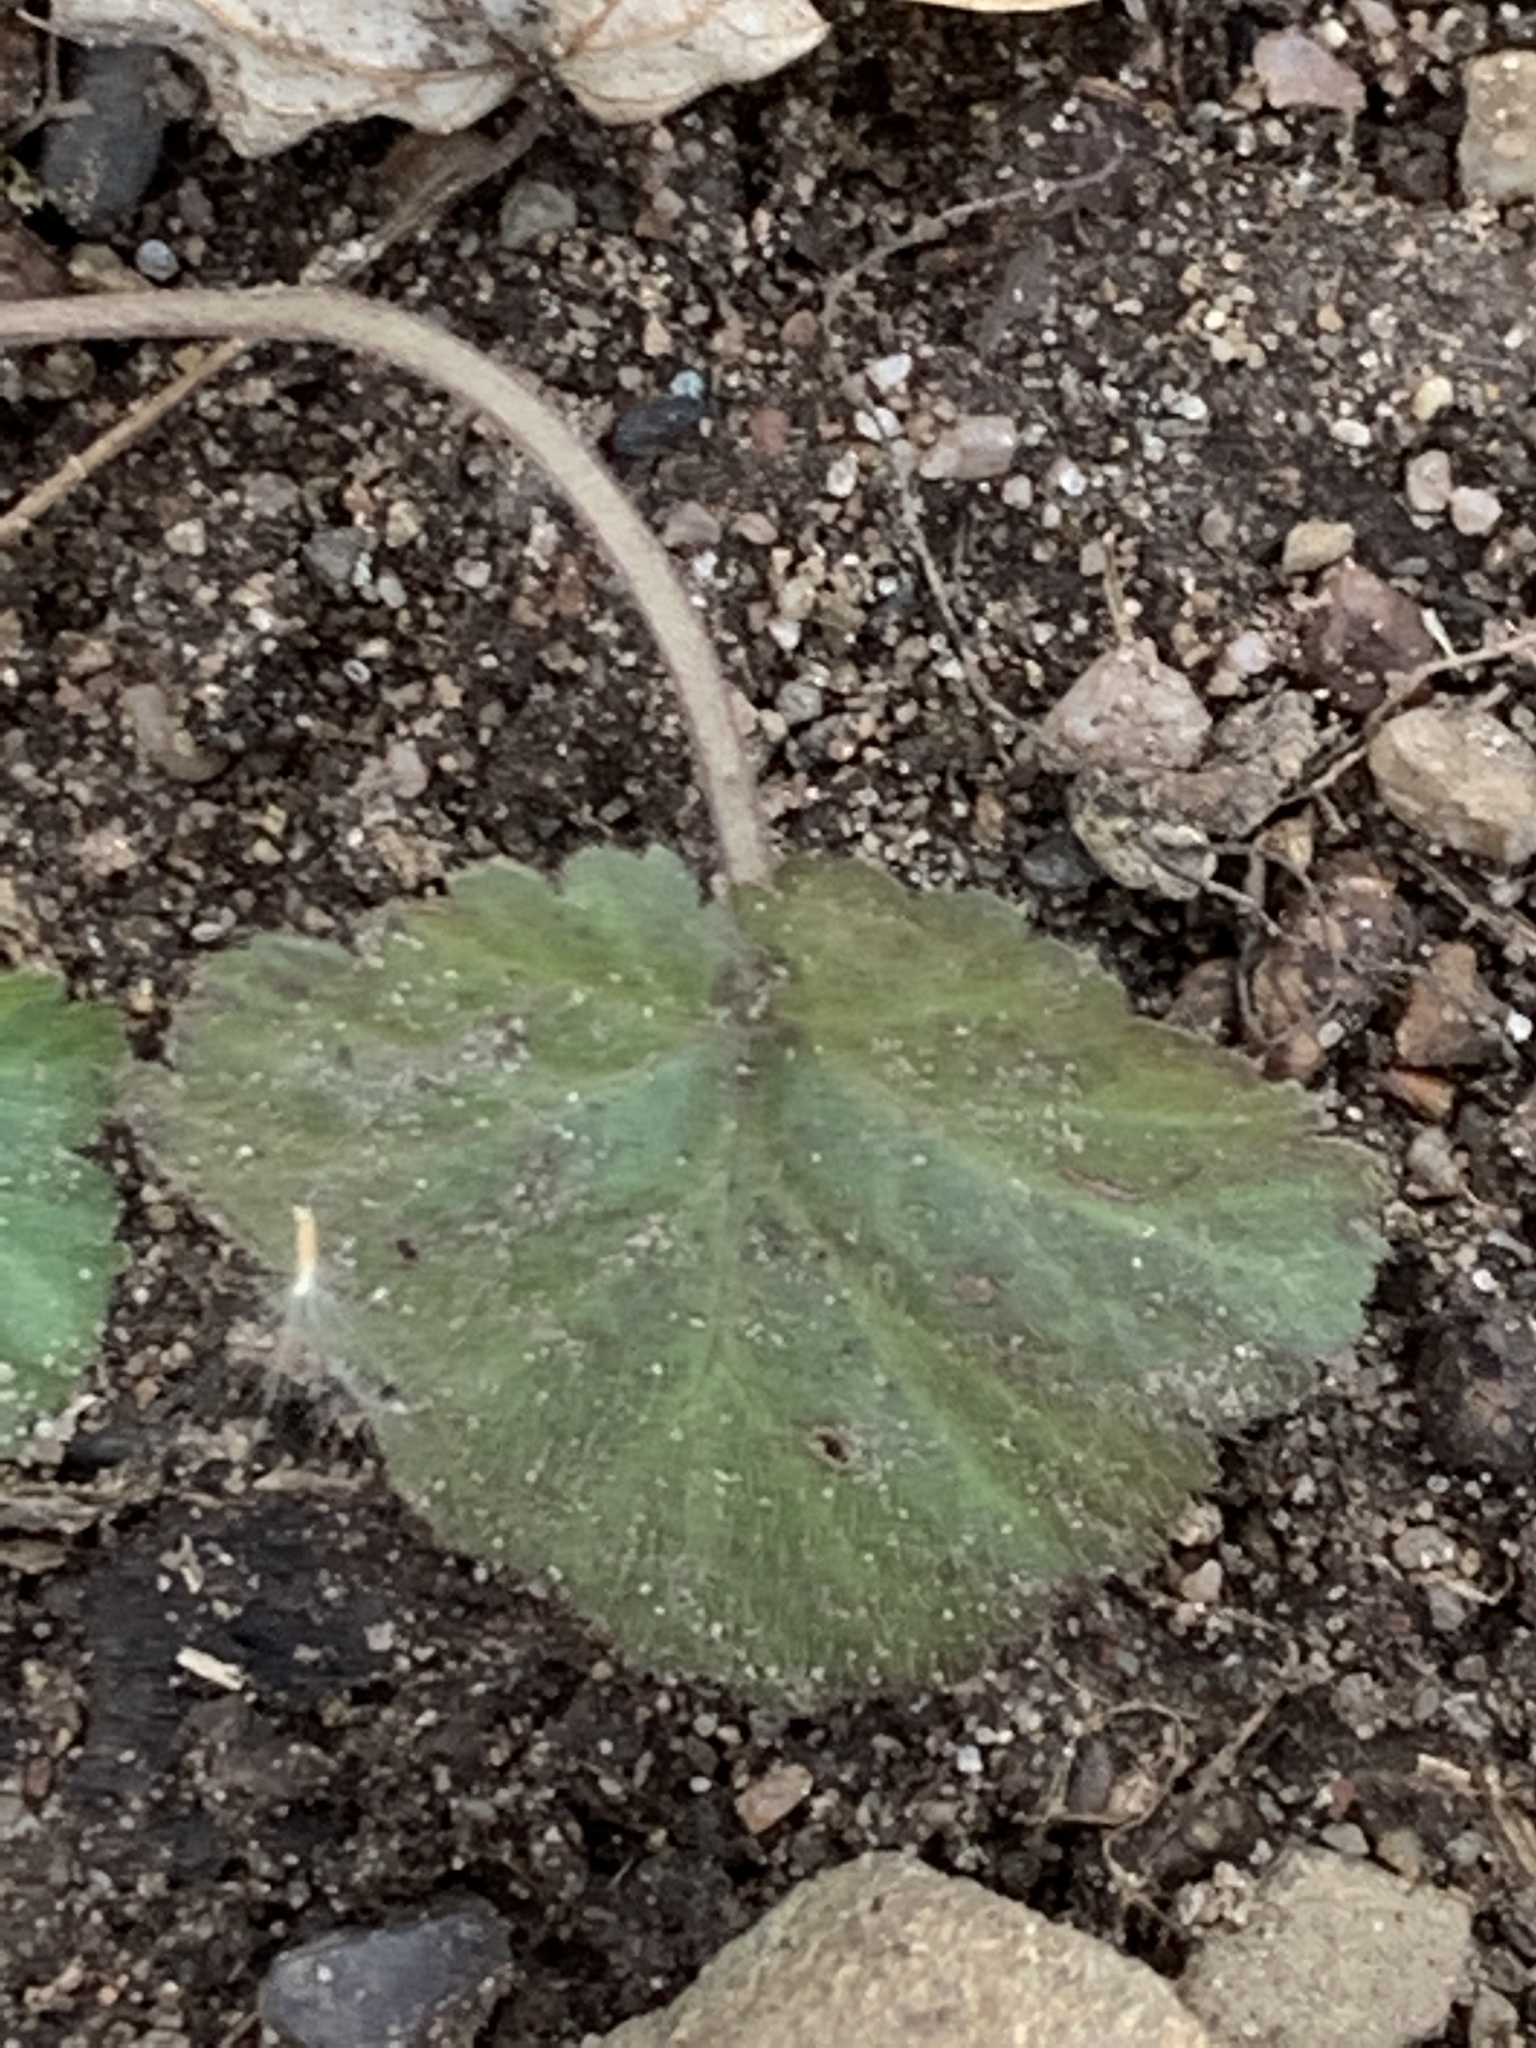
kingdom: Plantae
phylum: Tracheophyta
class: Magnoliopsida
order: Rosales
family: Rosaceae
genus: Geum
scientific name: Geum canadense
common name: White avens
